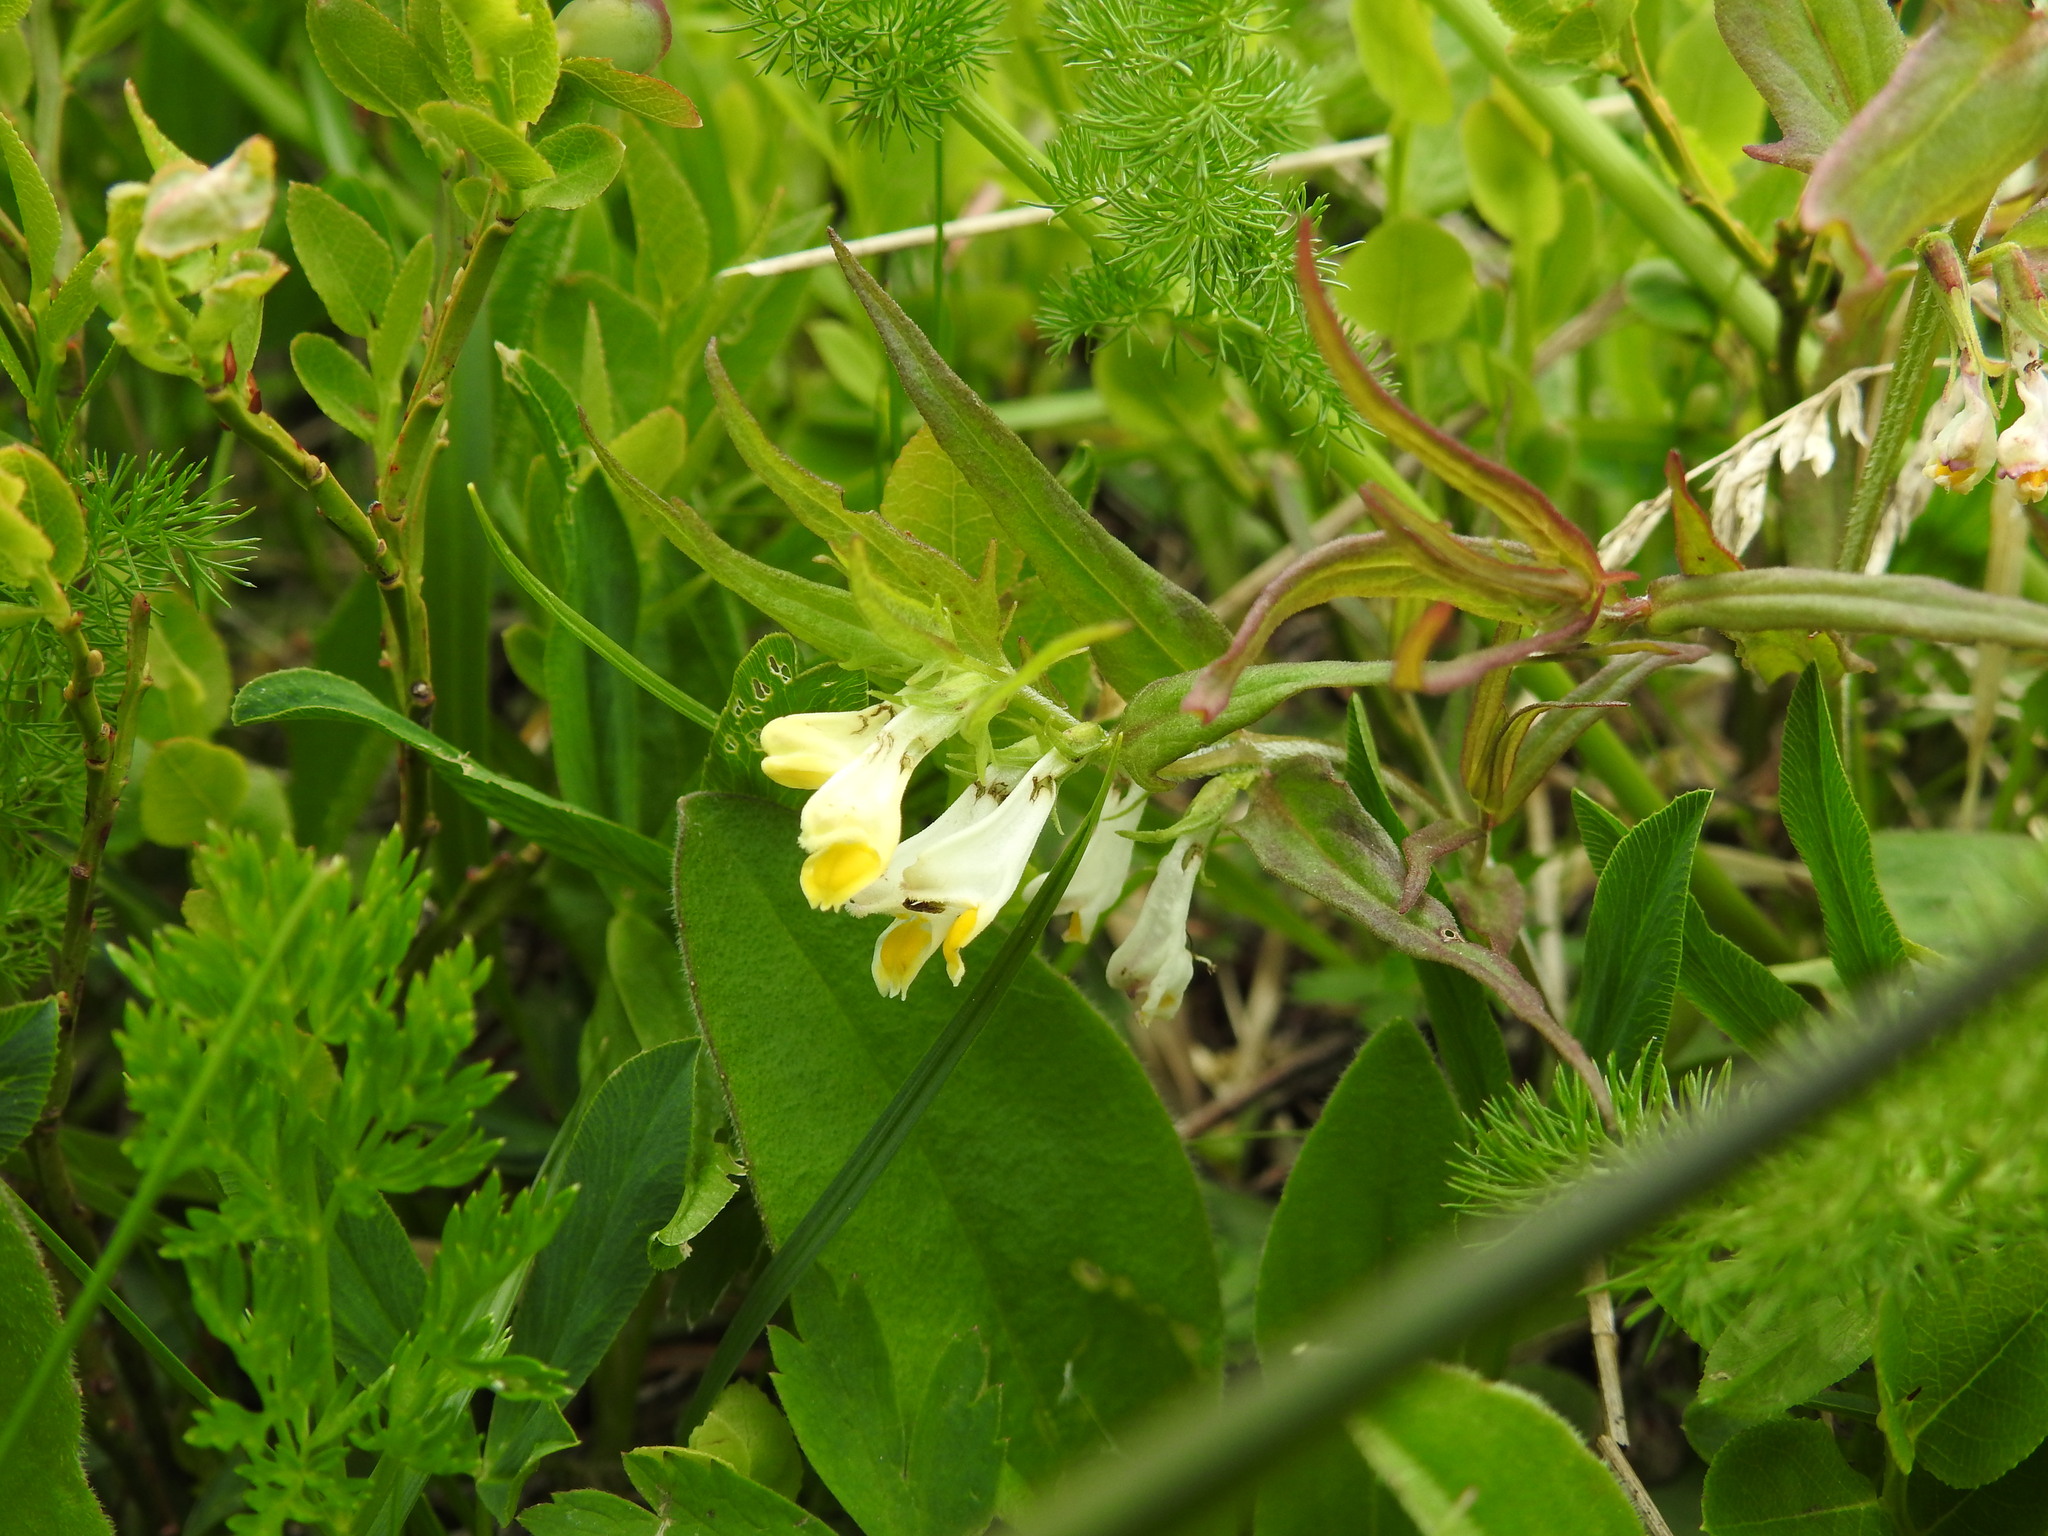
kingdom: Plantae
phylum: Tracheophyta
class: Magnoliopsida
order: Lamiales
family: Orobanchaceae
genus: Melampyrum
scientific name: Melampyrum pratense
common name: Common cow-wheat
